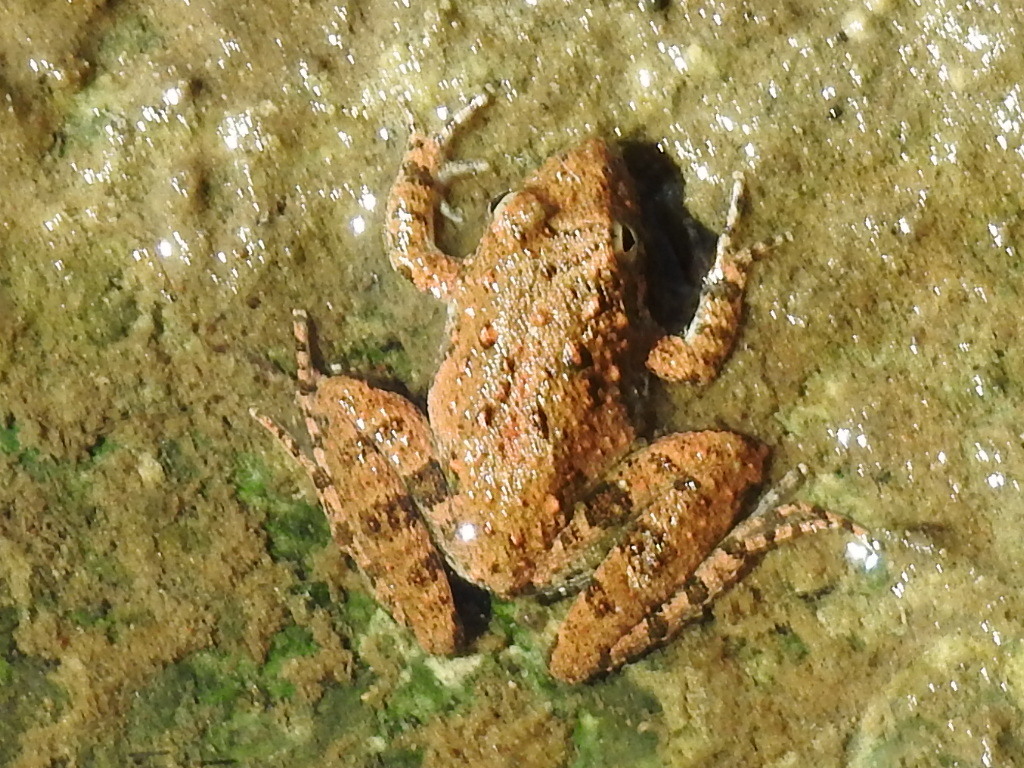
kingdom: Animalia
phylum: Chordata
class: Amphibia
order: Anura
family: Hylidae
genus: Acris
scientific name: Acris blanchardi
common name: Blanchard's cricket frog
